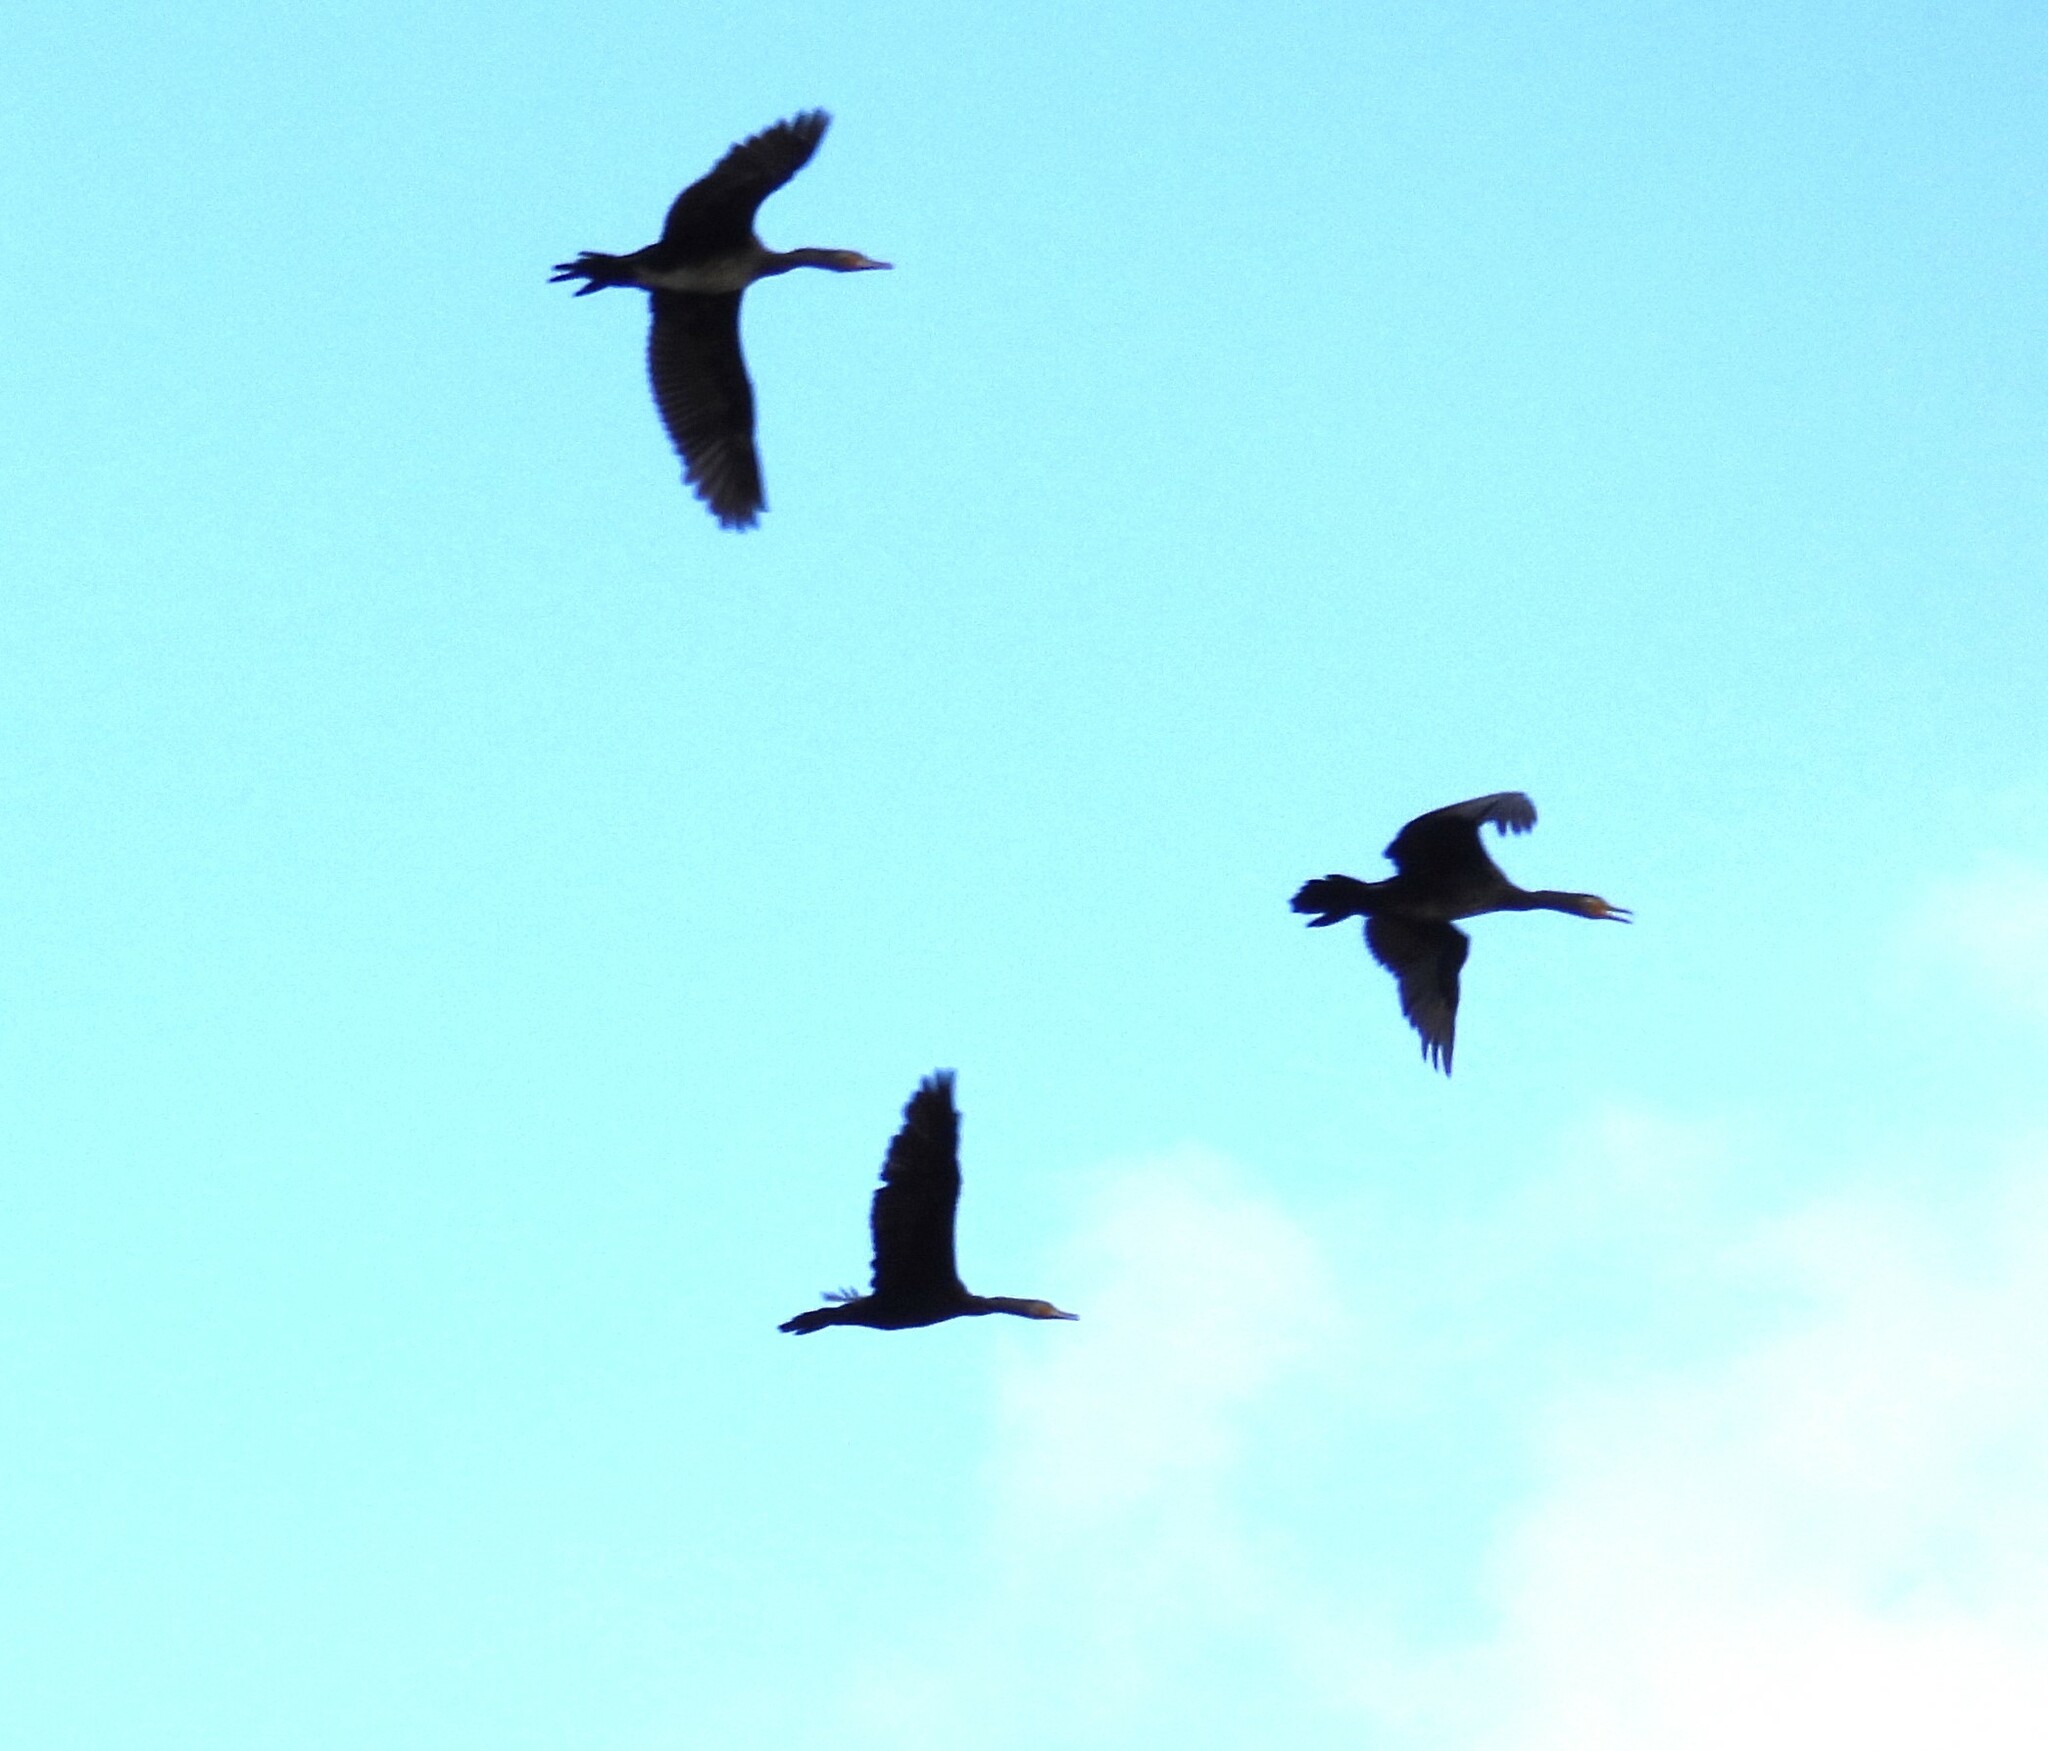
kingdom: Animalia
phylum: Chordata
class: Aves
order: Suliformes
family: Phalacrocoracidae
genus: Phalacrocorax
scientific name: Phalacrocorax carbo
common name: Great cormorant
